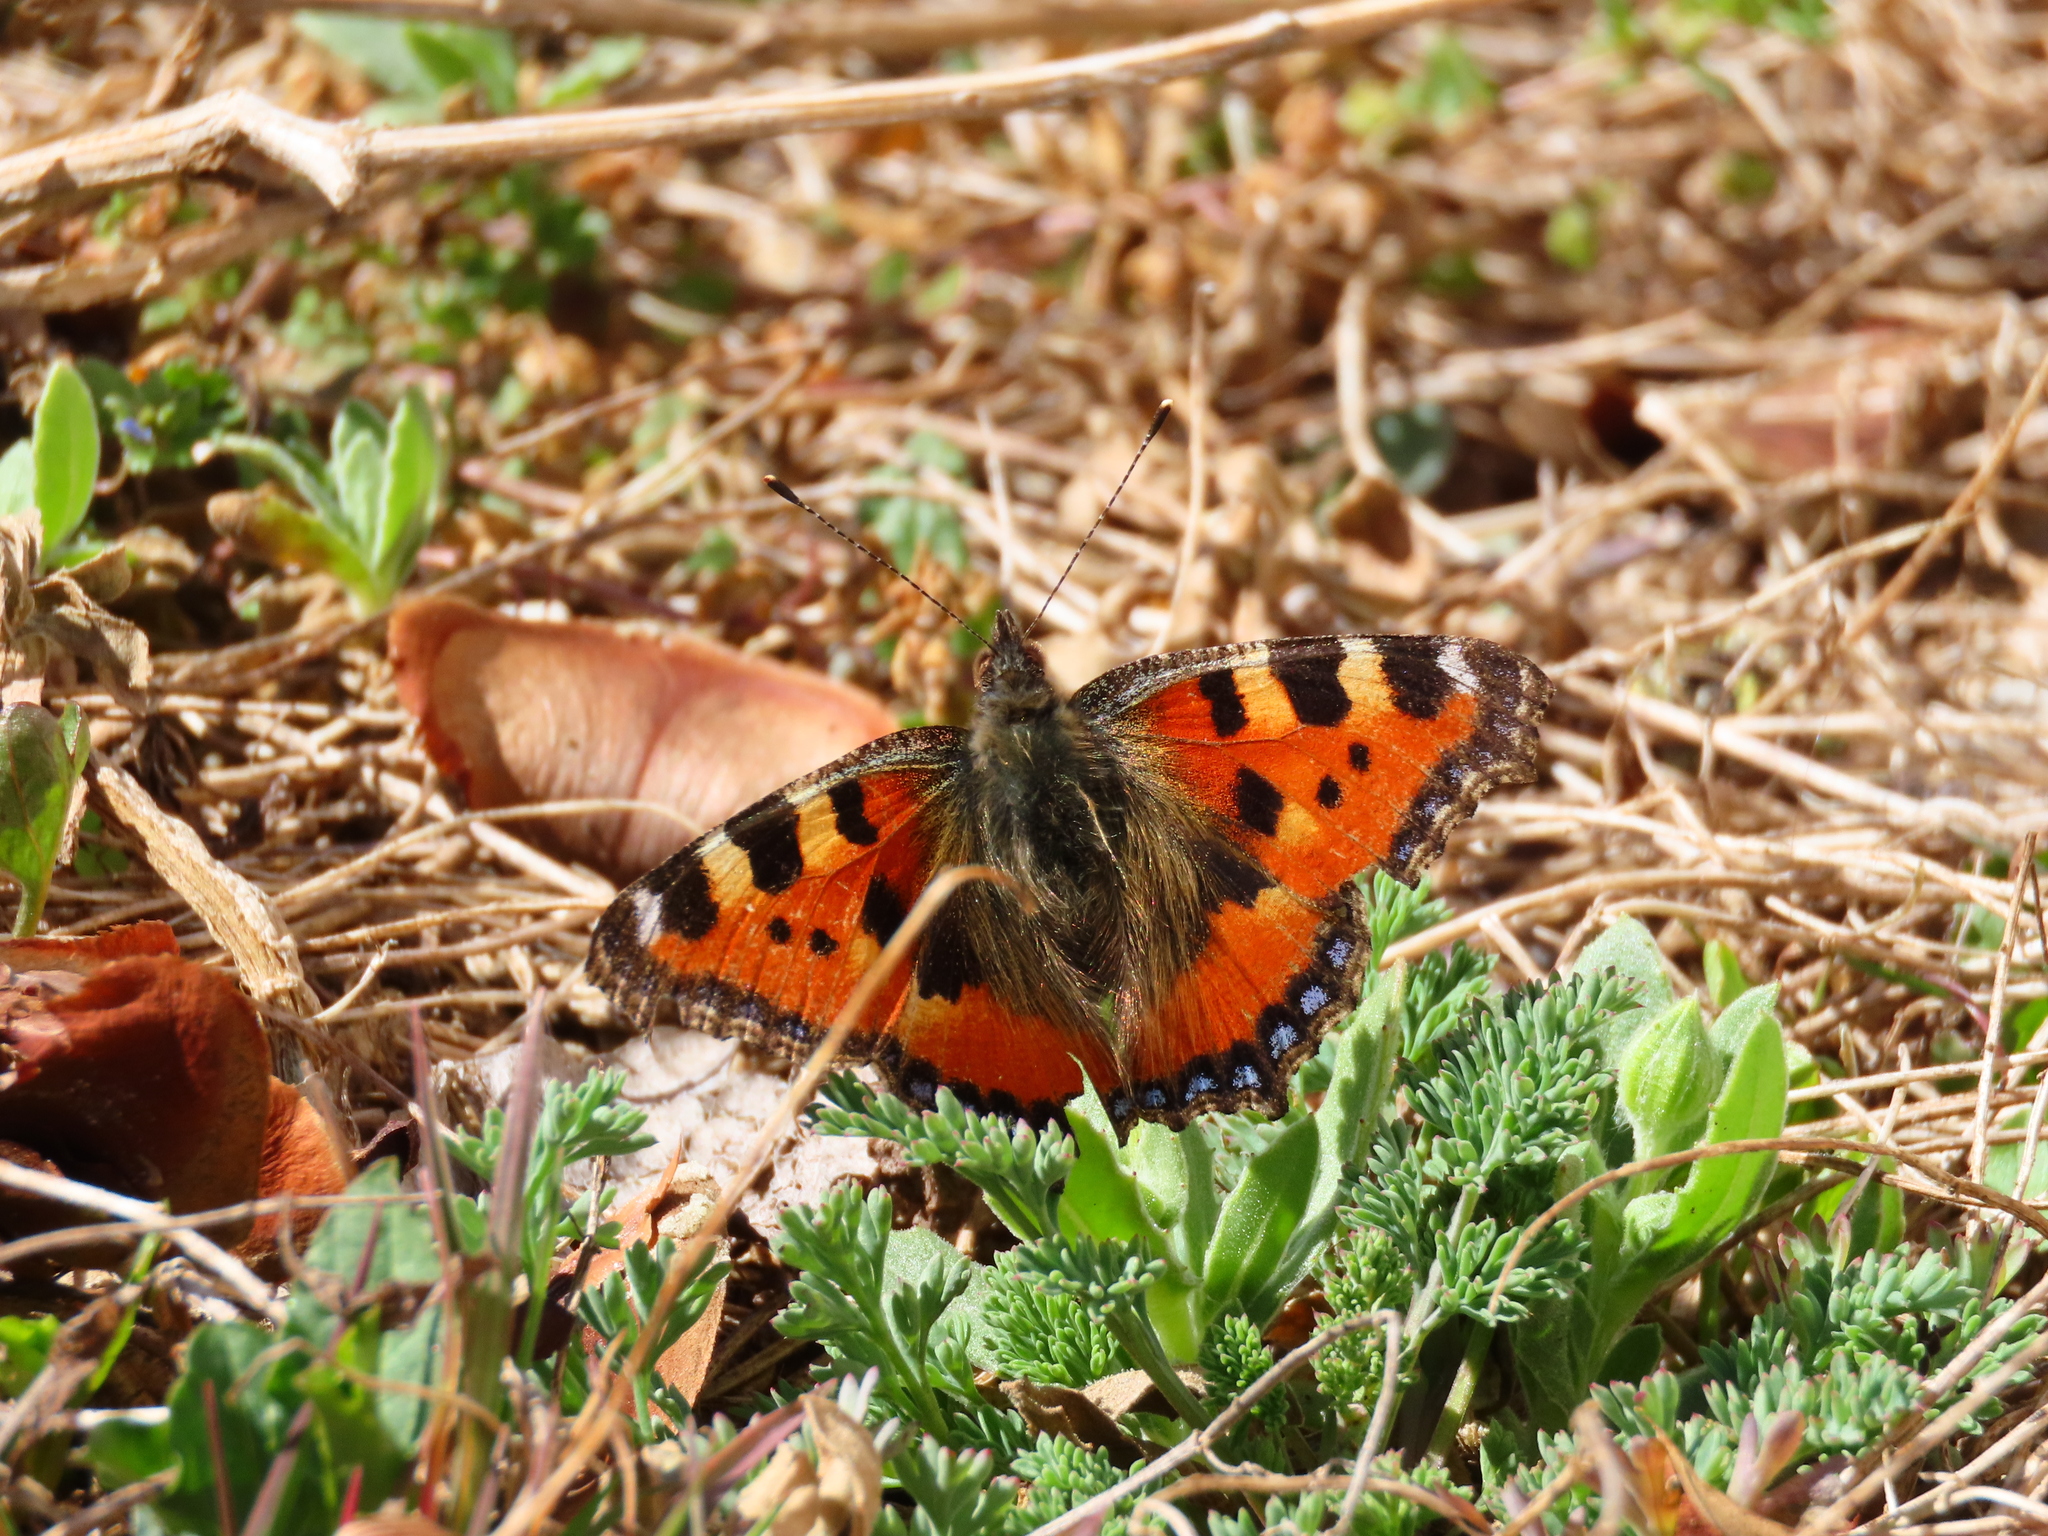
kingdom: Animalia
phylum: Arthropoda
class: Insecta
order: Lepidoptera
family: Nymphalidae
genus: Aglais
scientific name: Aglais urticae
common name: Small tortoiseshell
